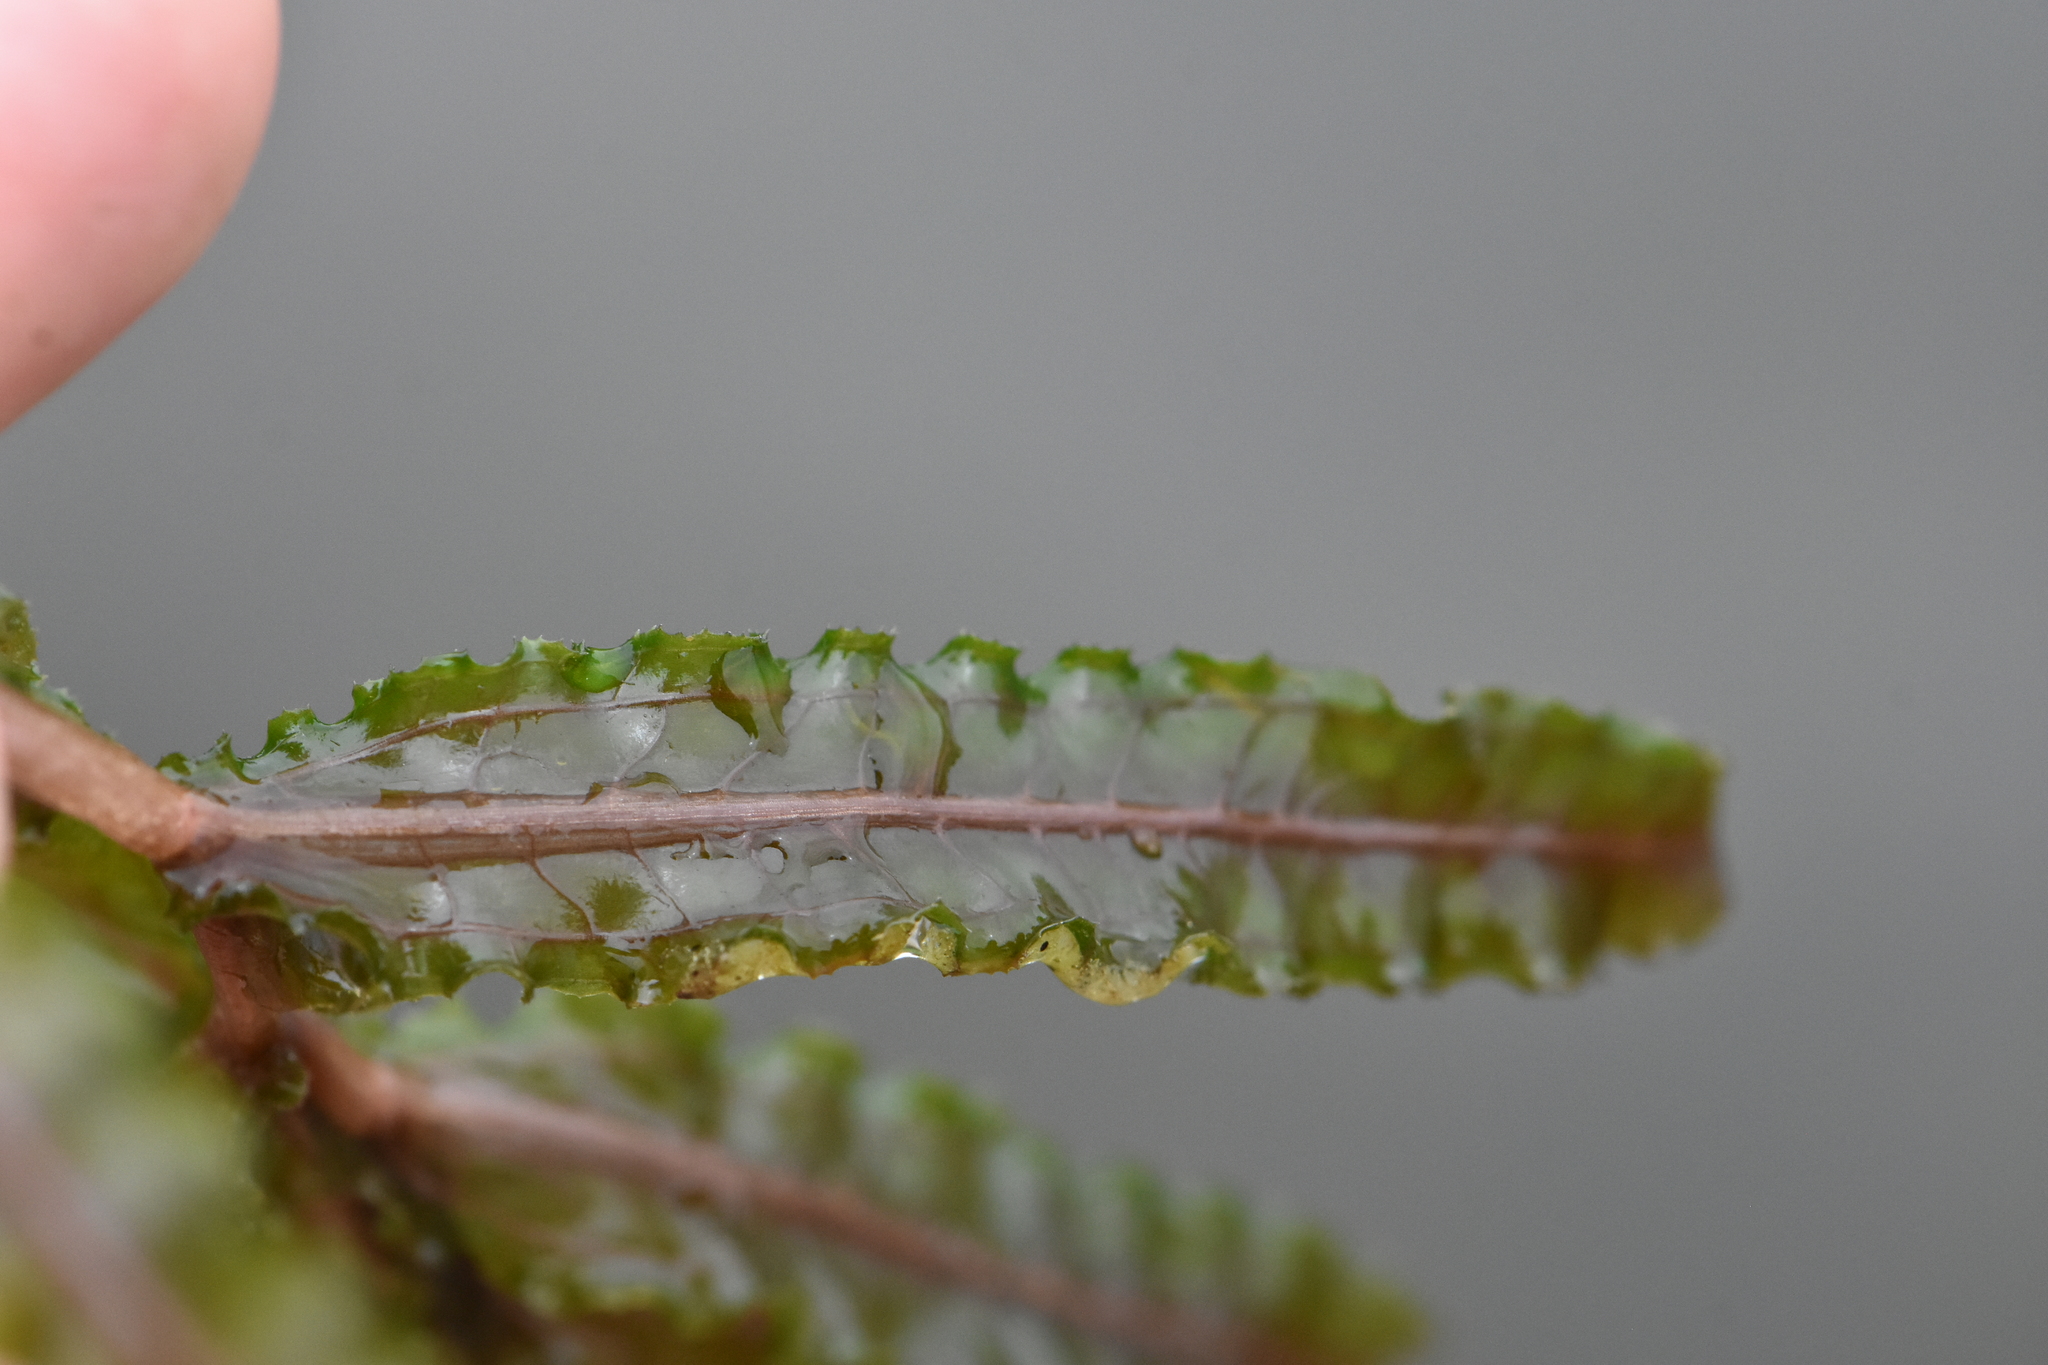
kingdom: Plantae
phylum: Tracheophyta
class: Liliopsida
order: Alismatales
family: Potamogetonaceae
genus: Potamogeton
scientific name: Potamogeton crispus
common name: Curled pondweed
